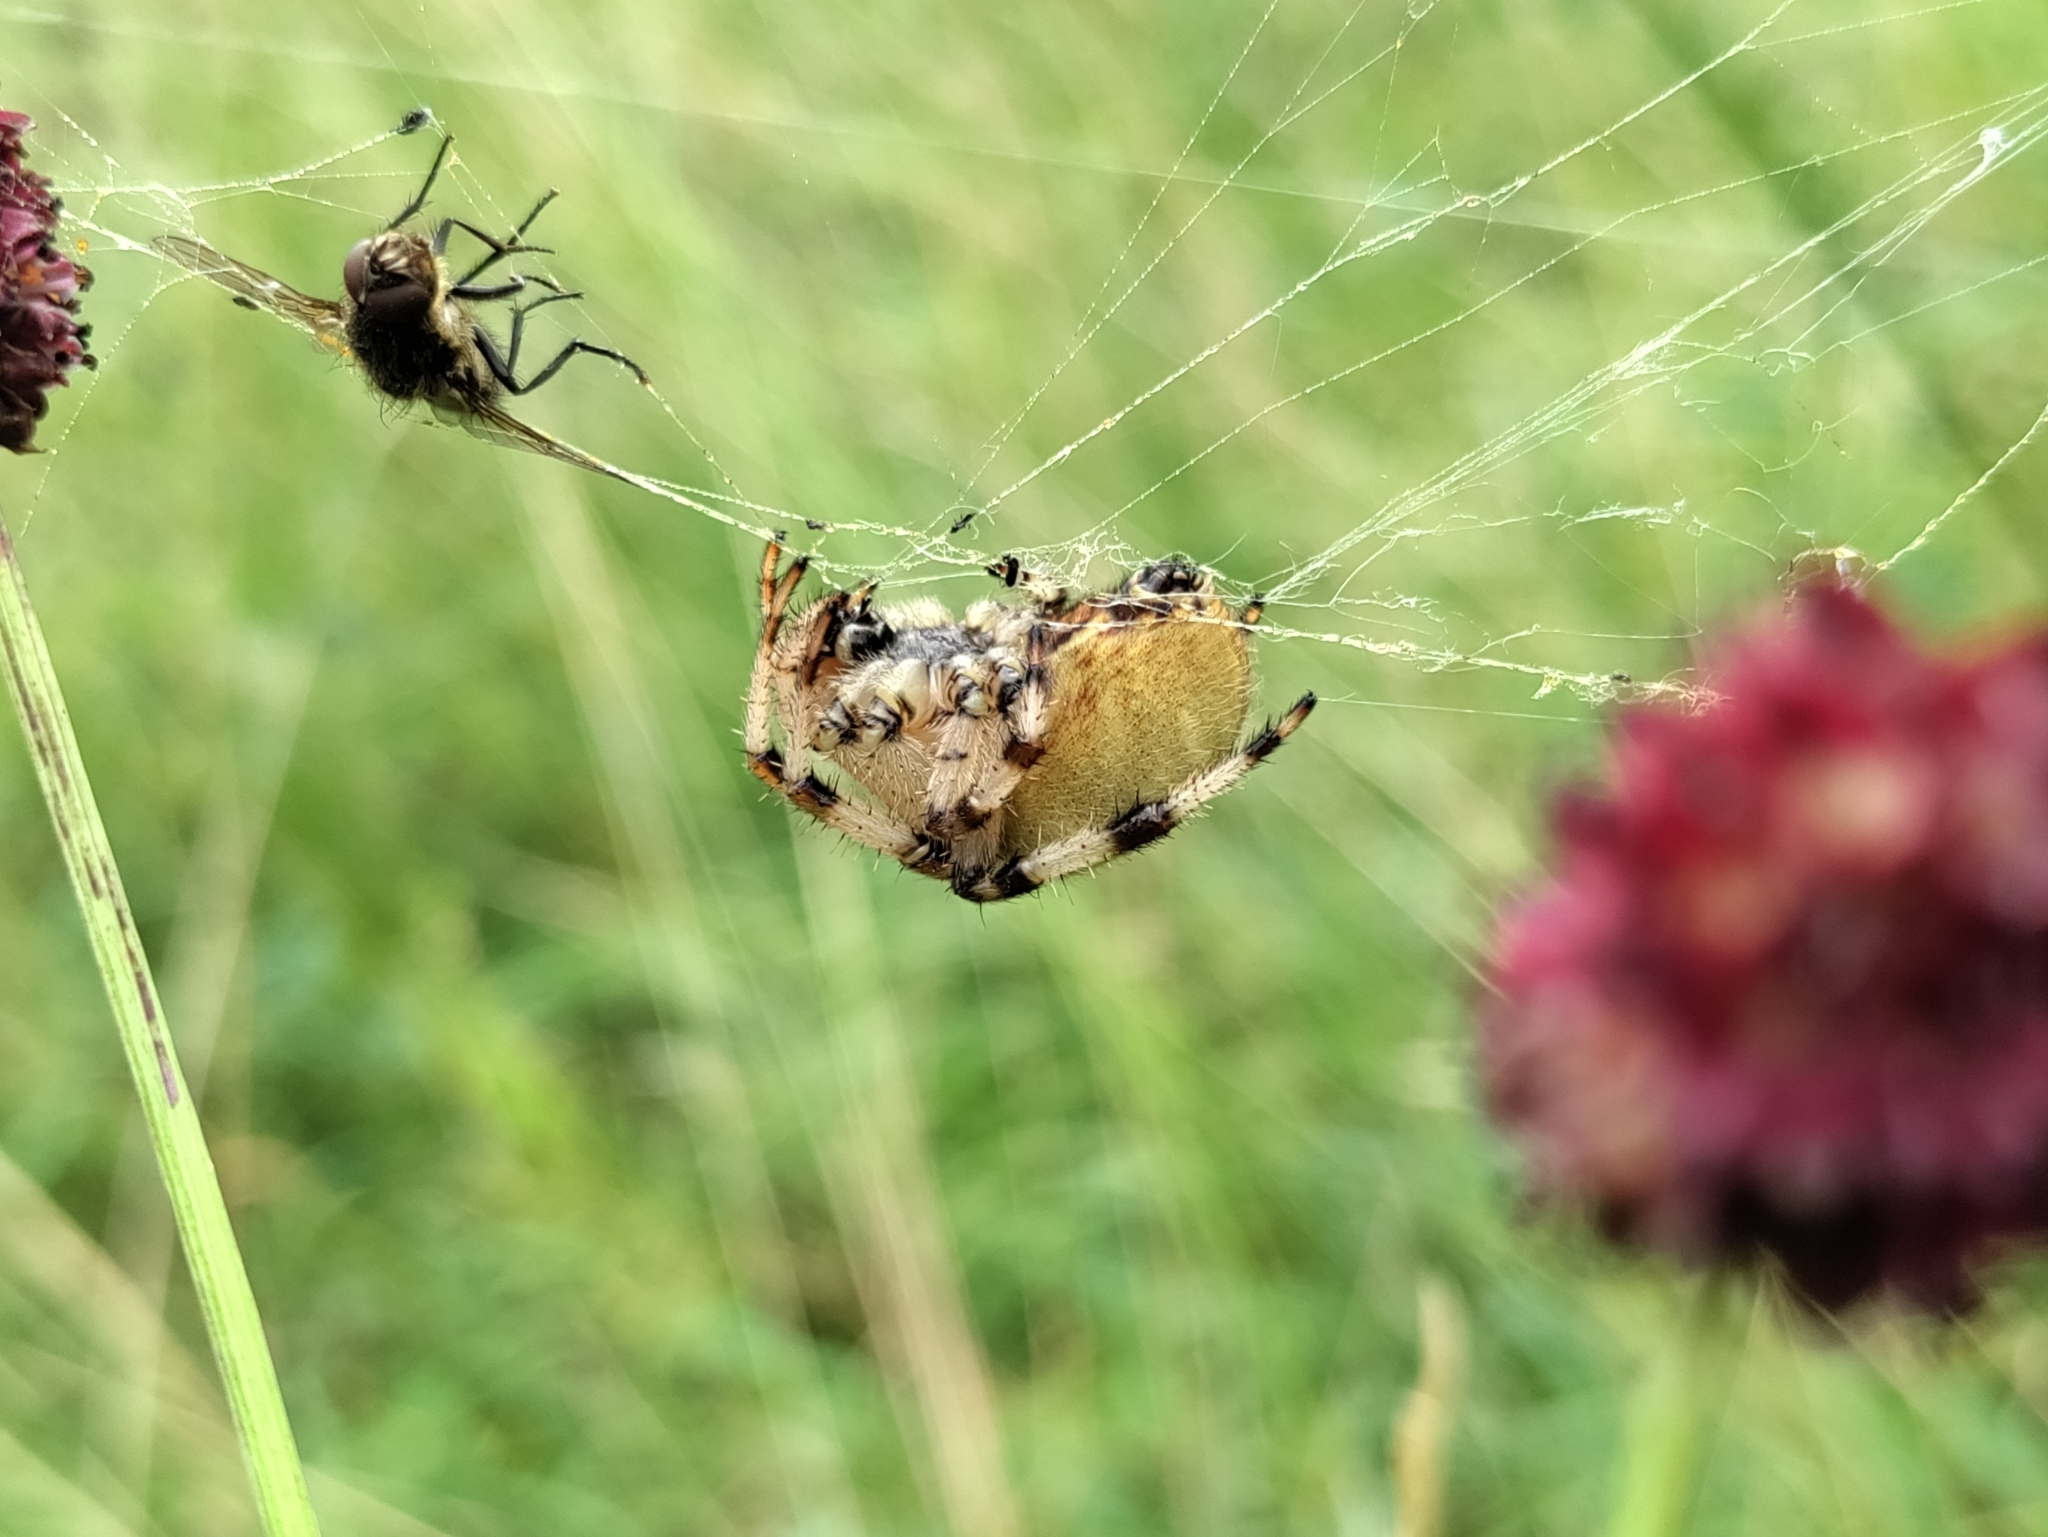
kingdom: Animalia
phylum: Arthropoda
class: Arachnida
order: Araneae
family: Araneidae
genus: Araneus
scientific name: Araneus quadratus
